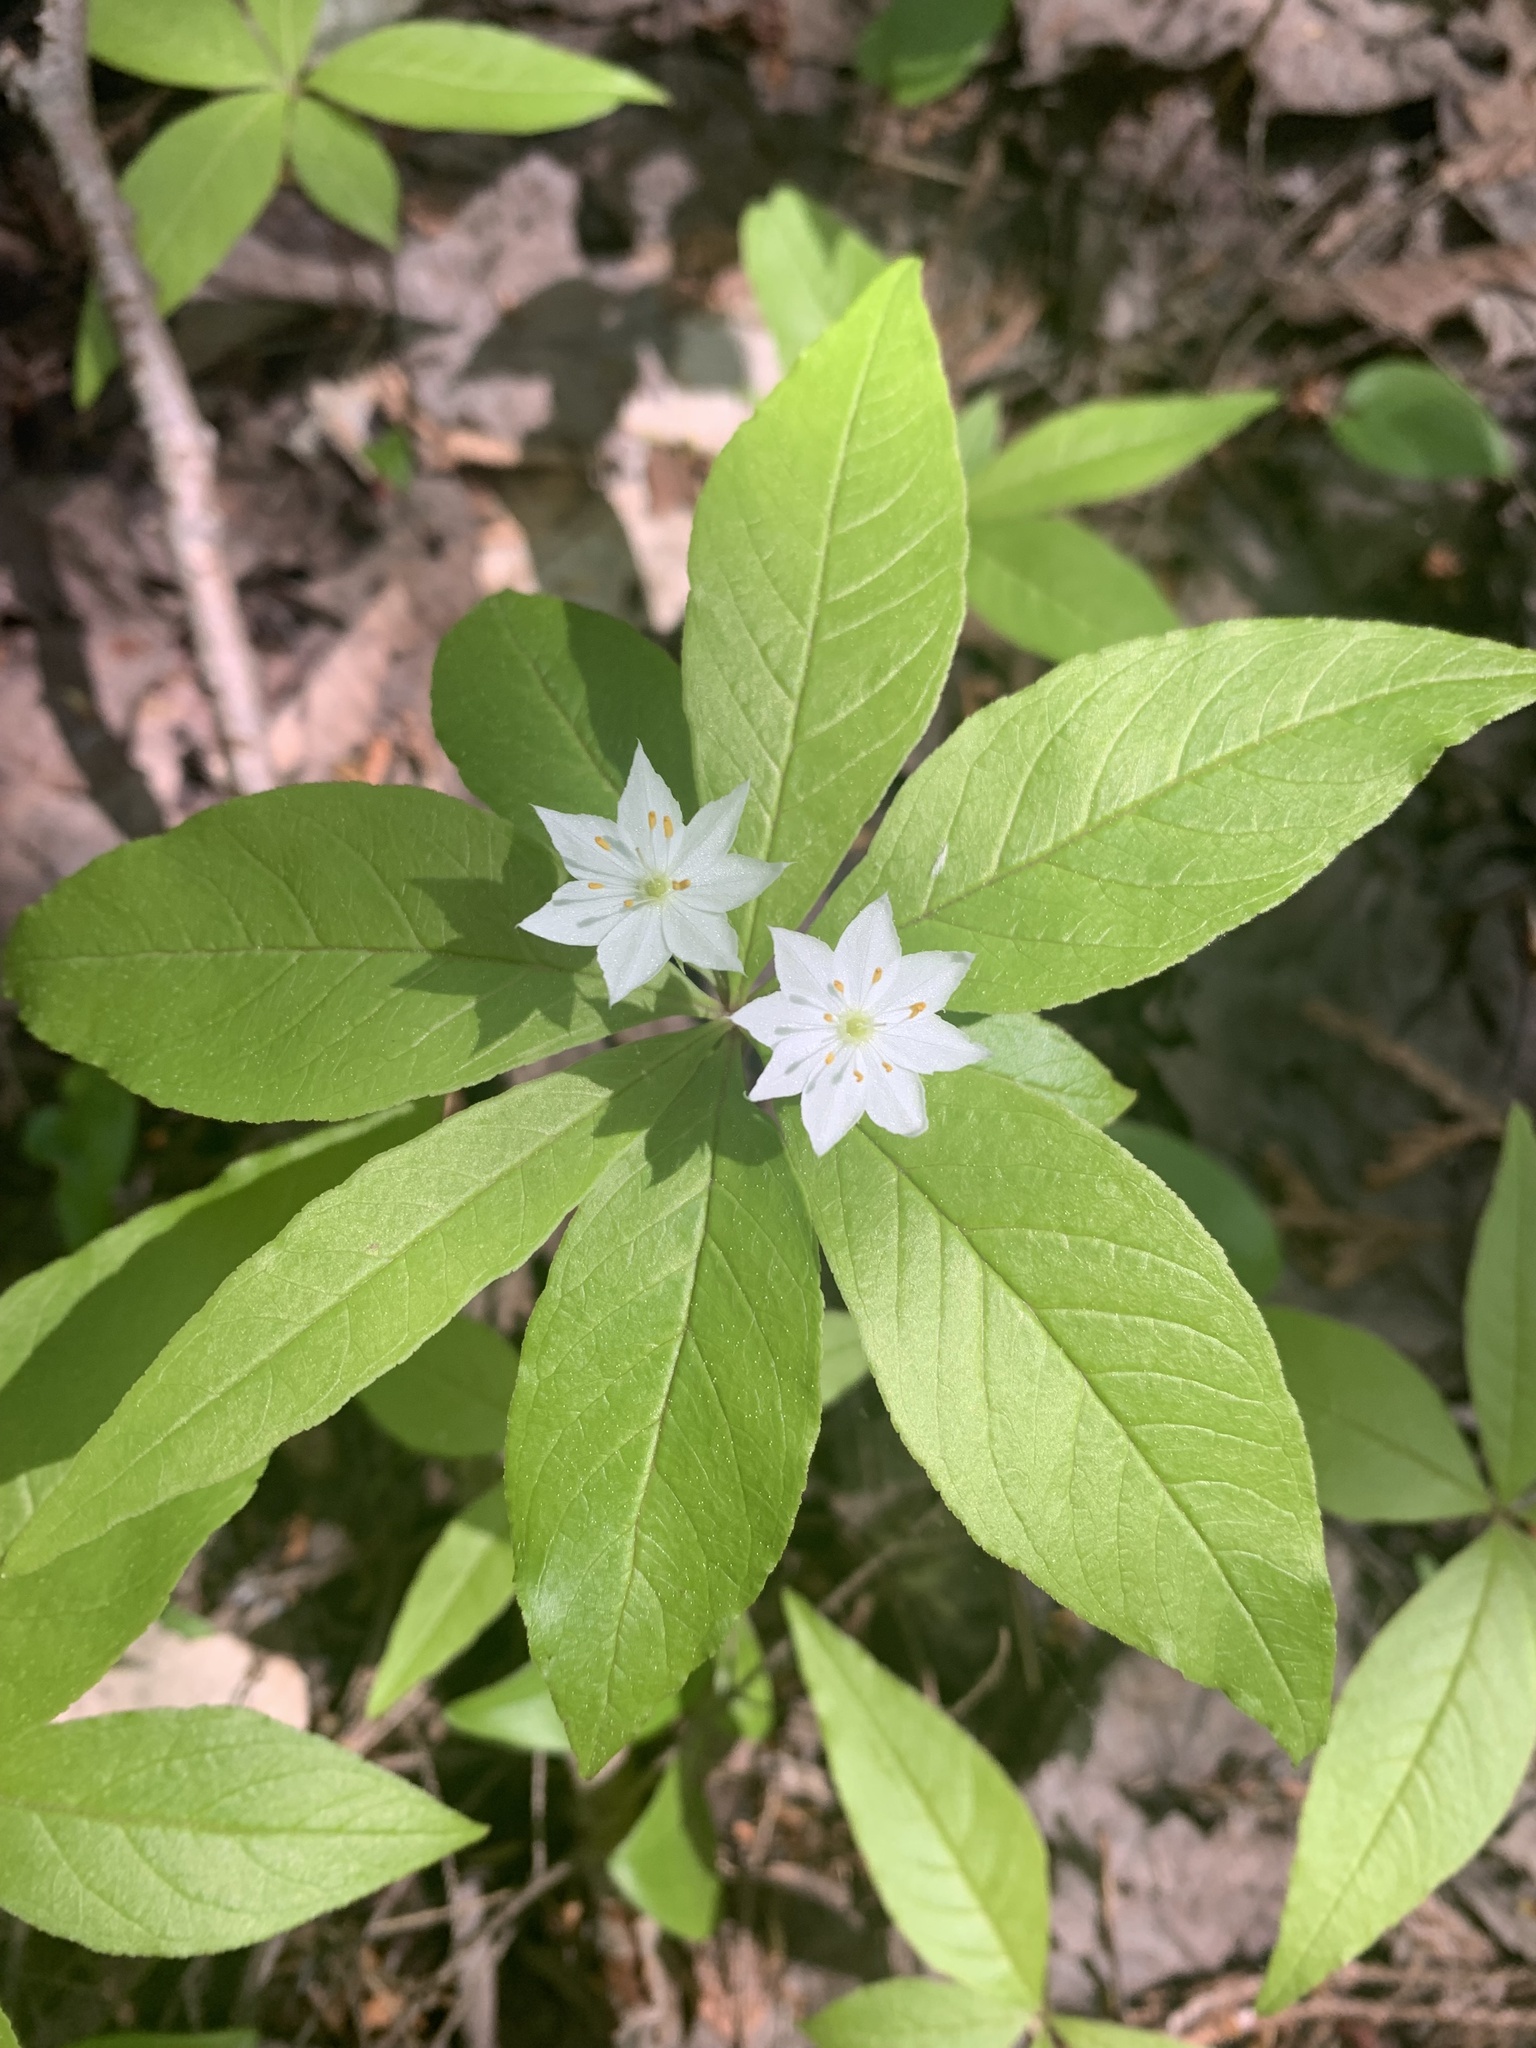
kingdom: Plantae
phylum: Tracheophyta
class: Magnoliopsida
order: Ericales
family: Primulaceae
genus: Lysimachia
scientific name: Lysimachia borealis
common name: American starflower
